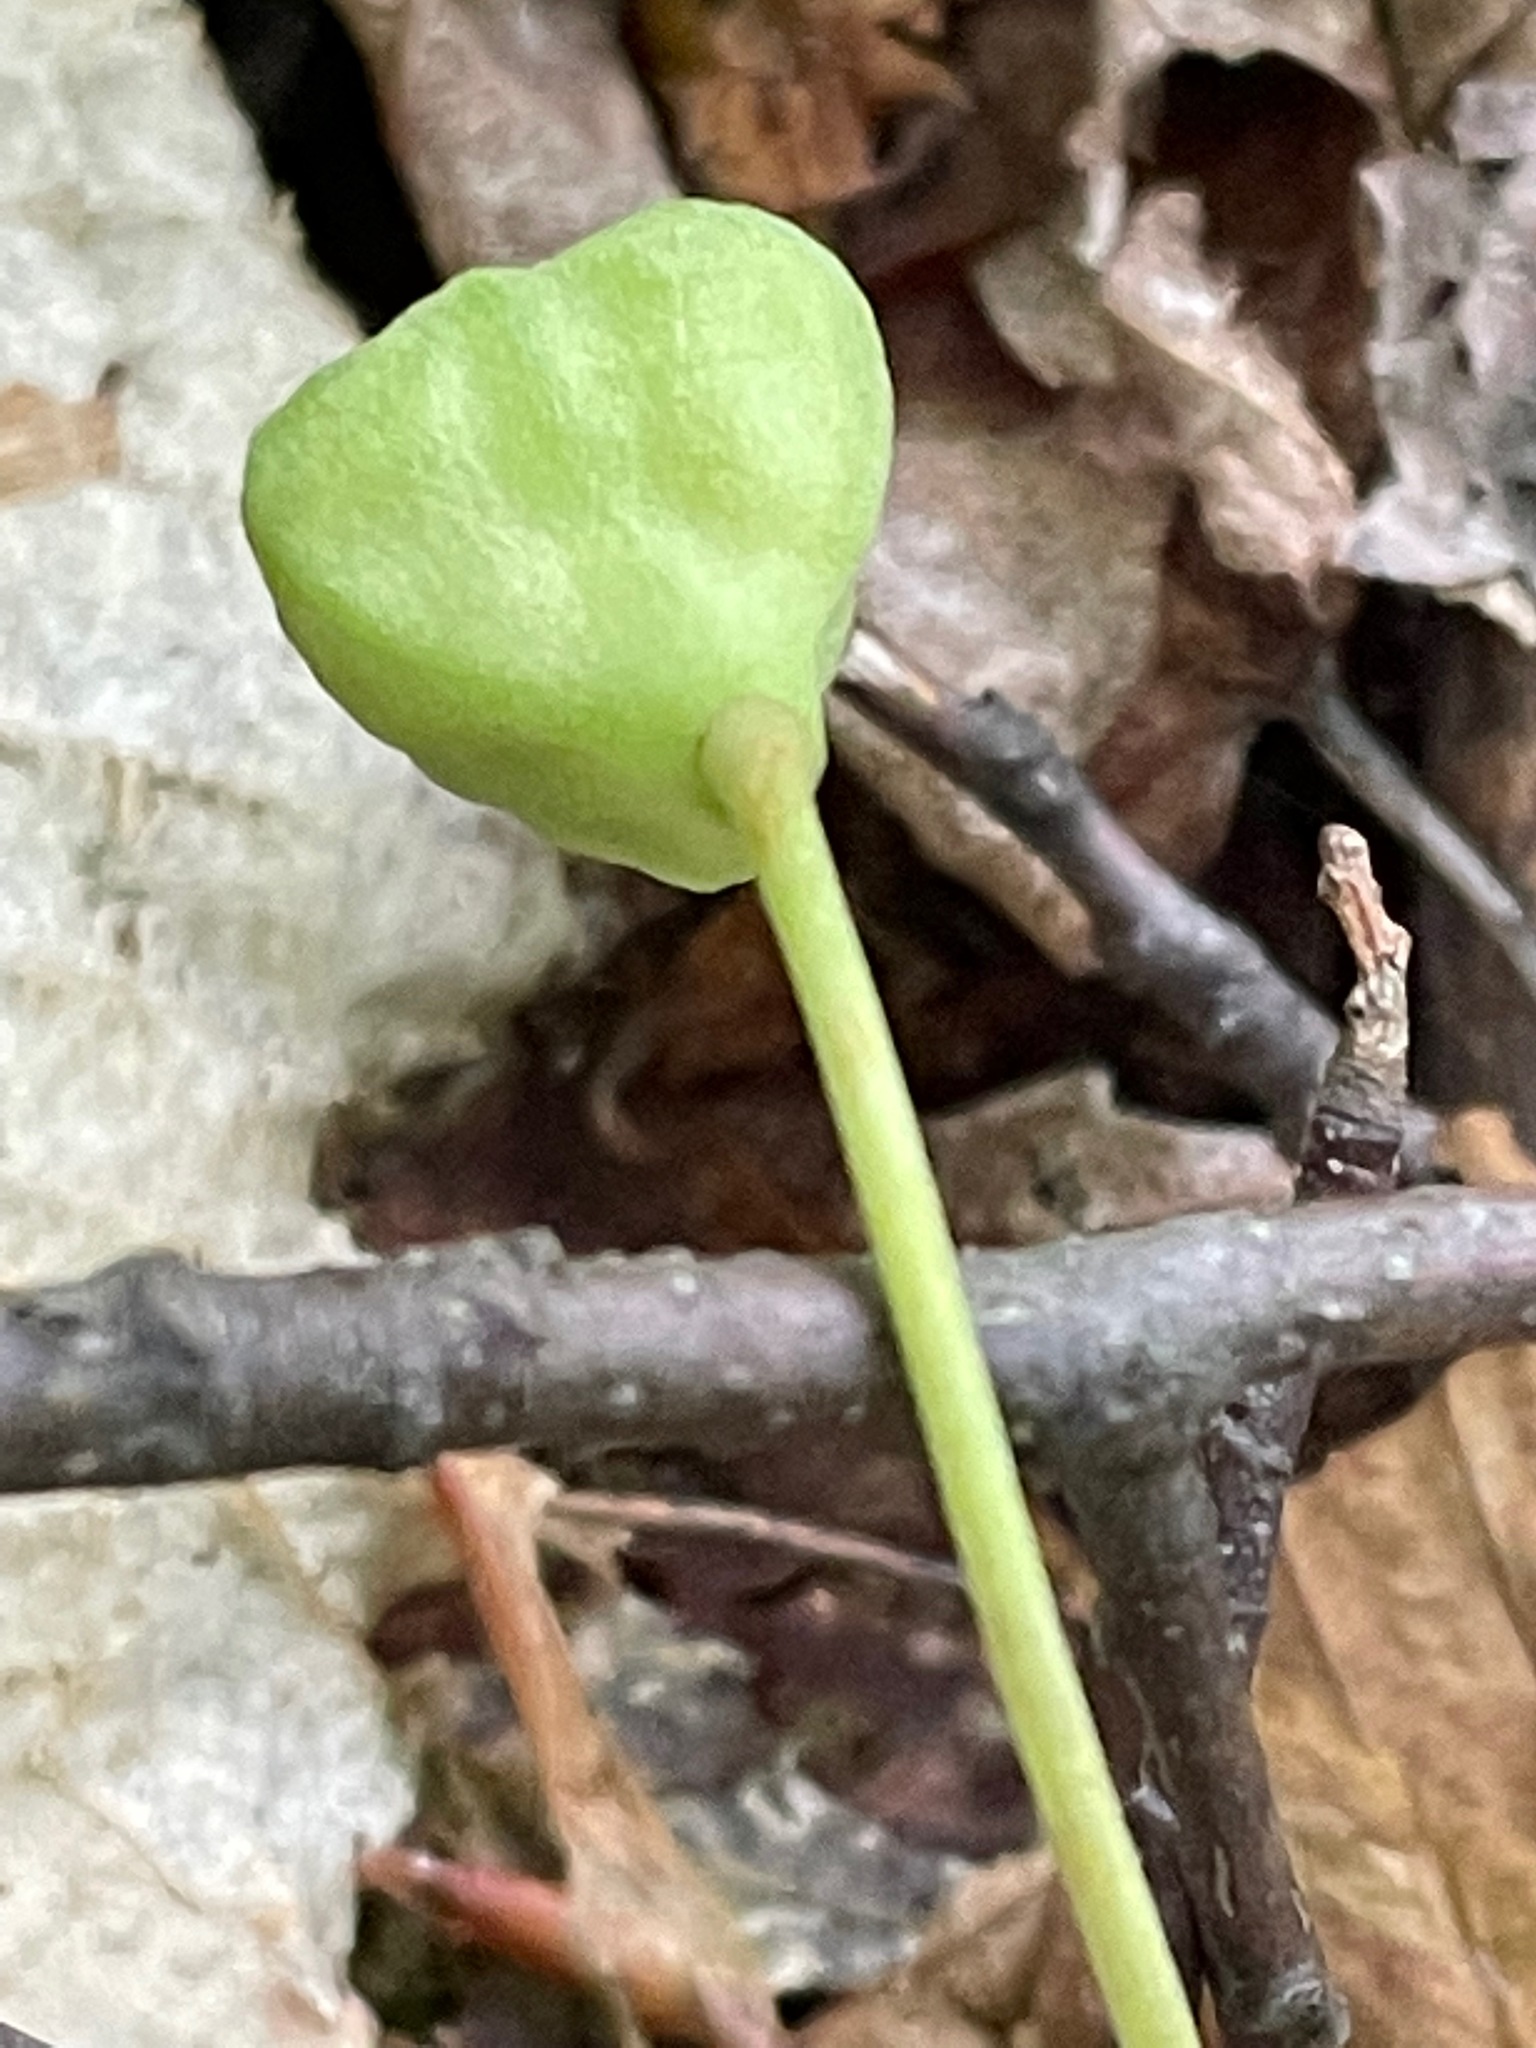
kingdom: Plantae
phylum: Tracheophyta
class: Liliopsida
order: Liliales
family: Liliaceae
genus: Erythronium
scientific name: Erythronium americanum
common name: Yellow adder's-tongue
